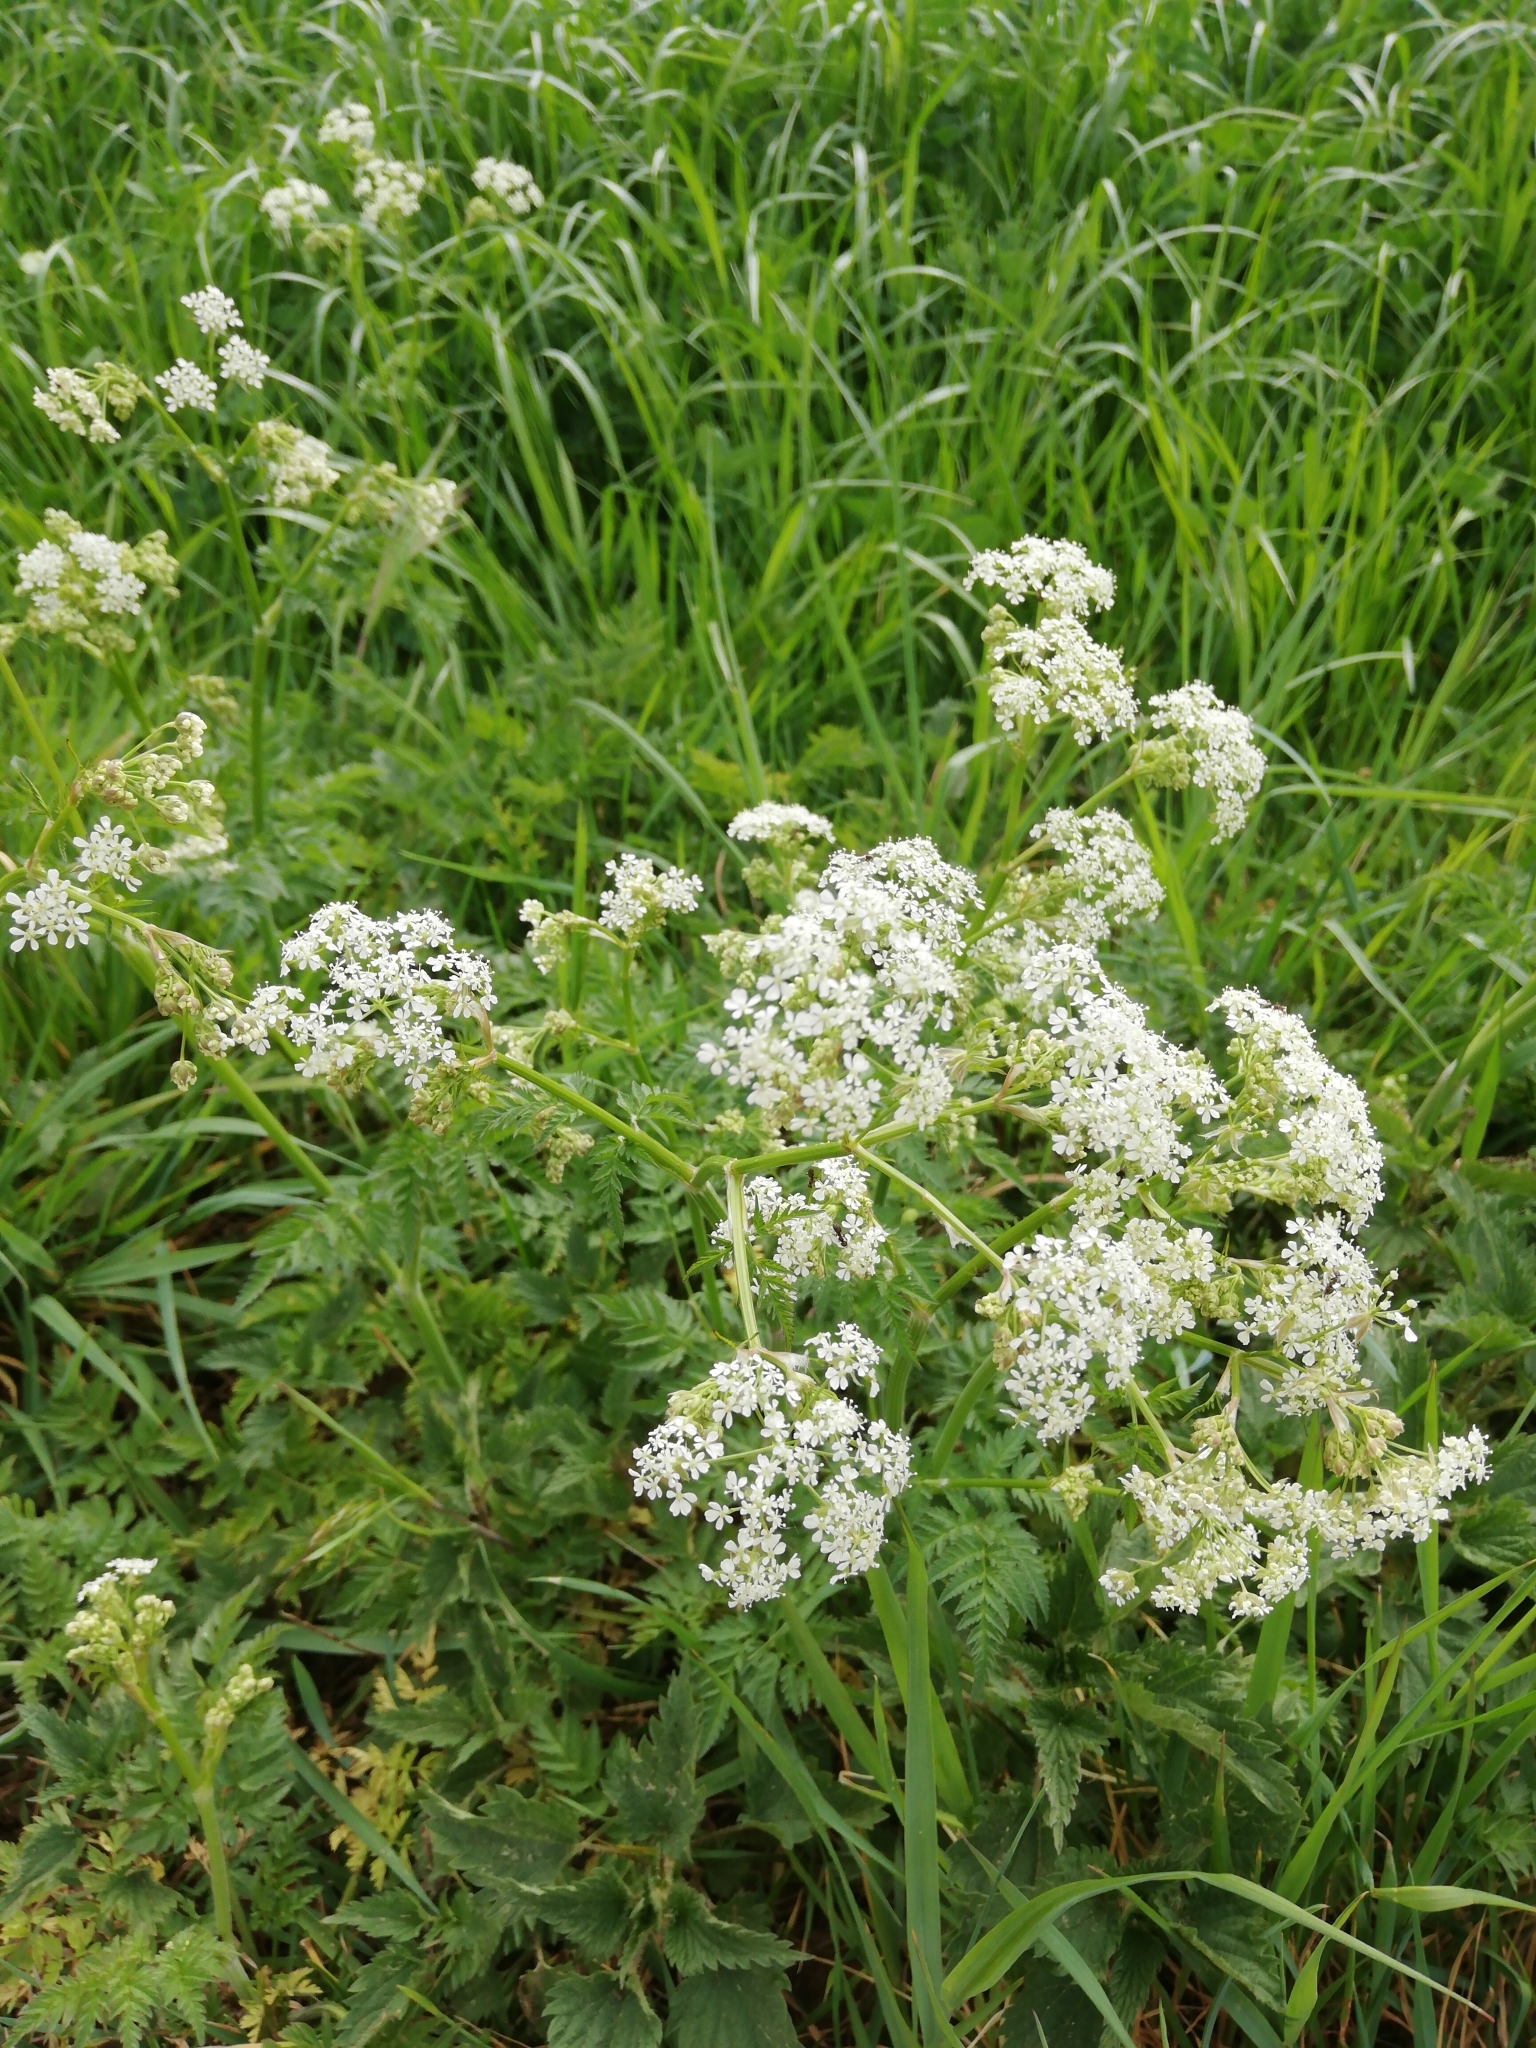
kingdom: Plantae
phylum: Tracheophyta
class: Magnoliopsida
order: Apiales
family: Apiaceae
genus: Anthriscus
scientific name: Anthriscus sylvestris
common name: Cow parsley
